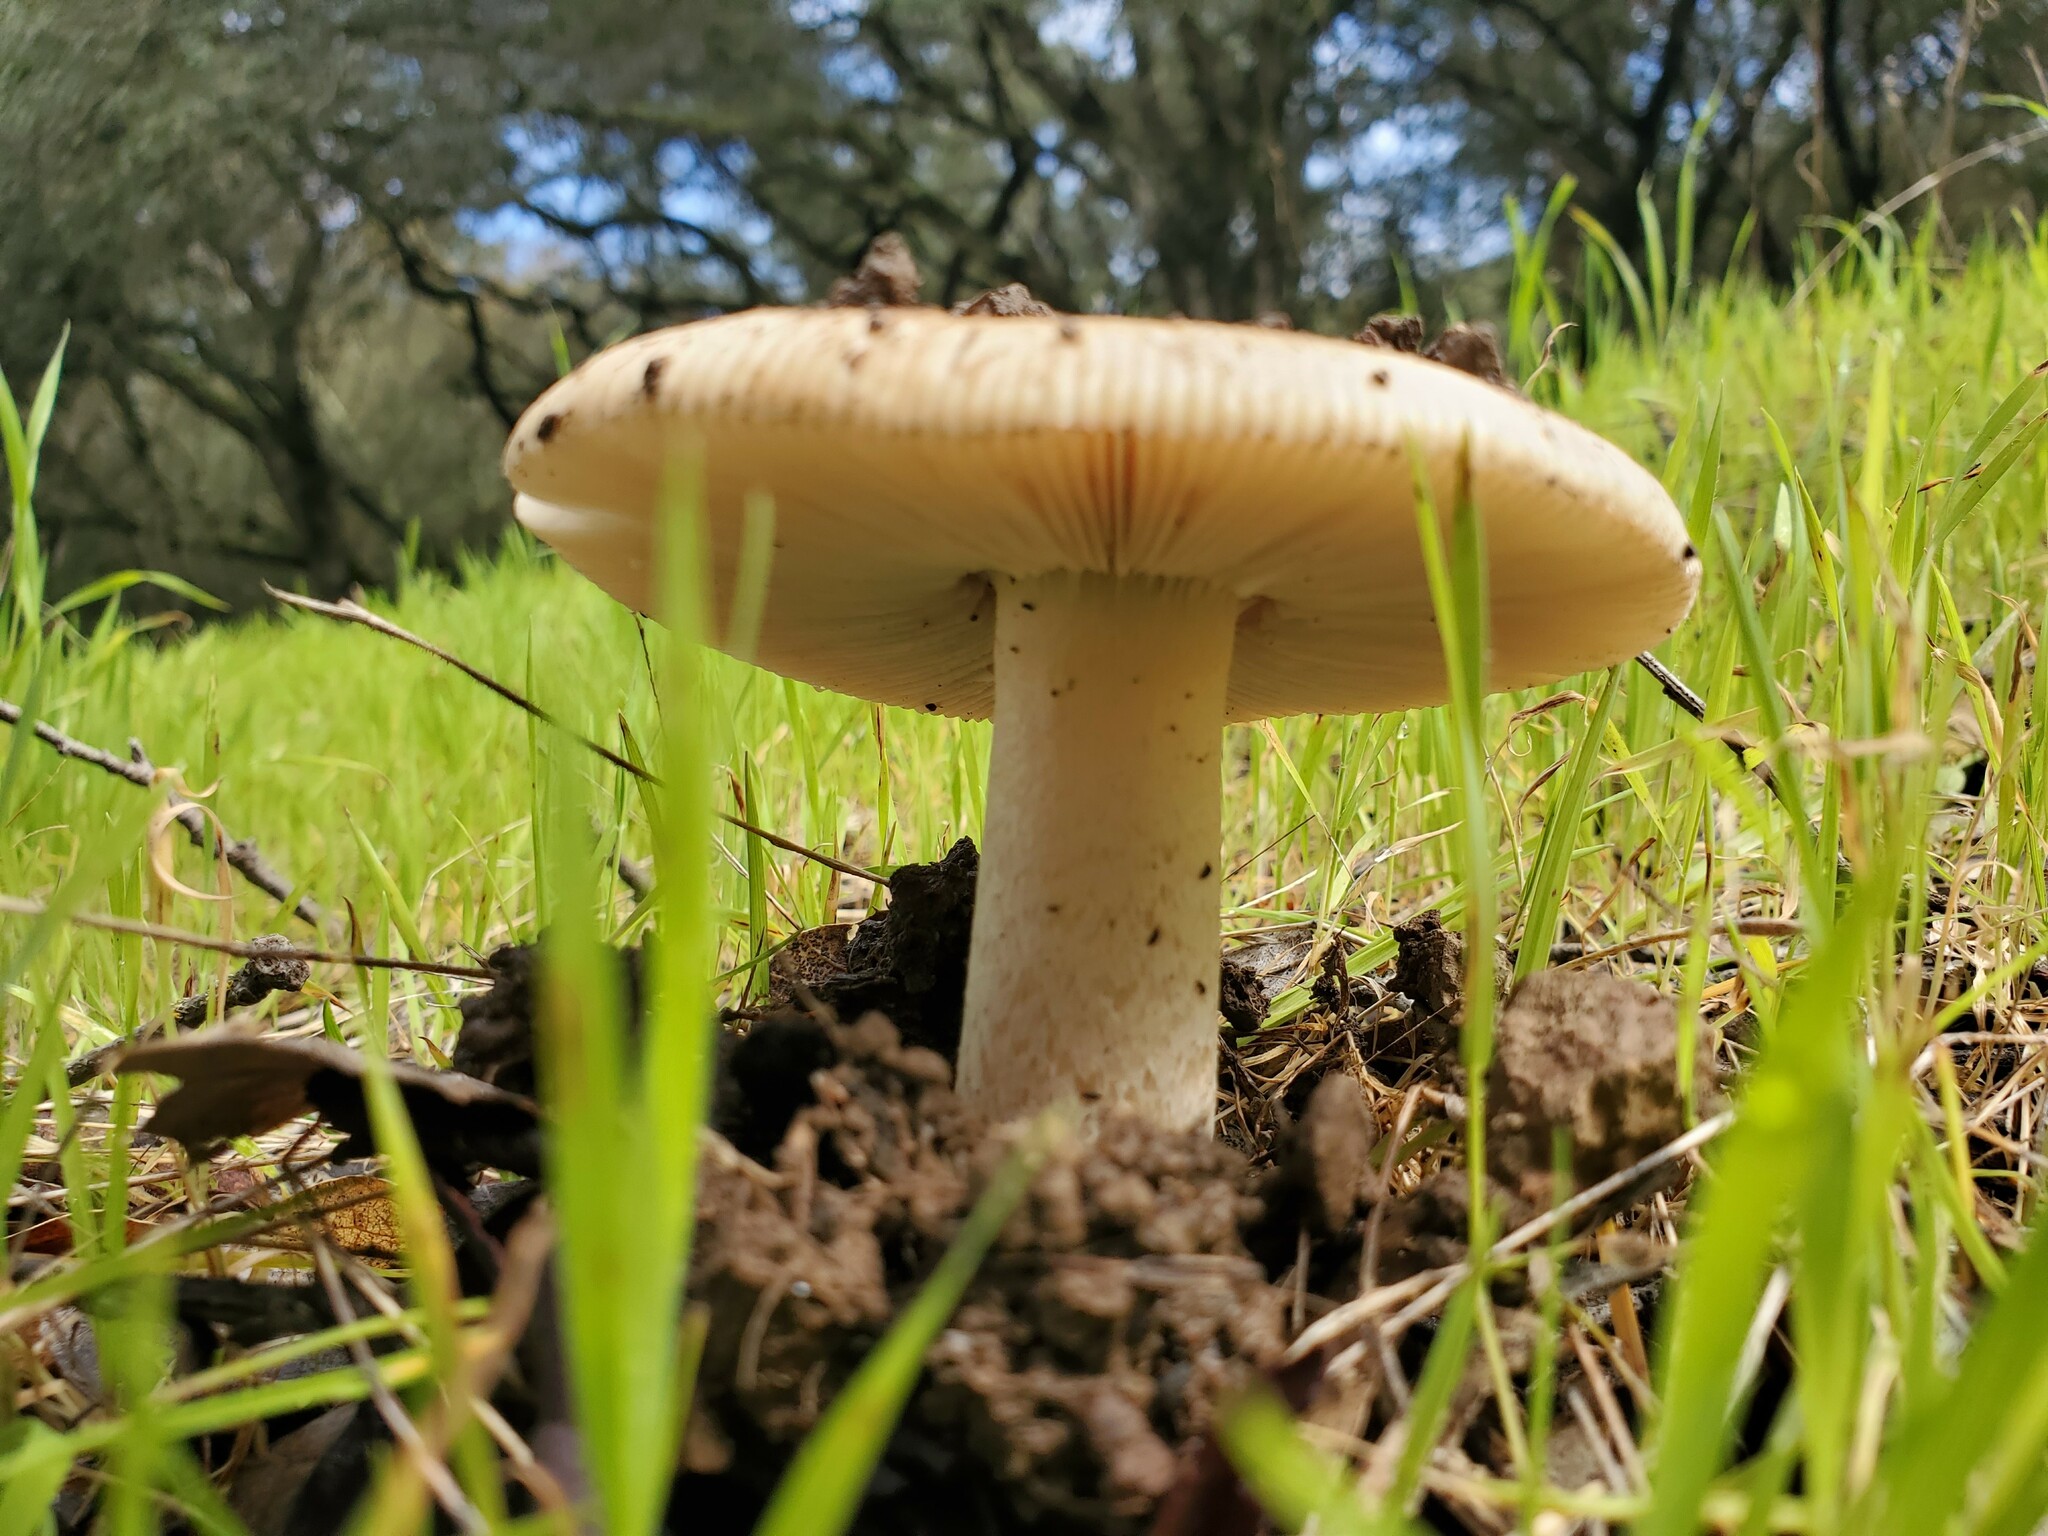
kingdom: Fungi
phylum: Basidiomycota
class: Agaricomycetes
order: Agaricales
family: Amanitaceae
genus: Amanita
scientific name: Amanita velosa
